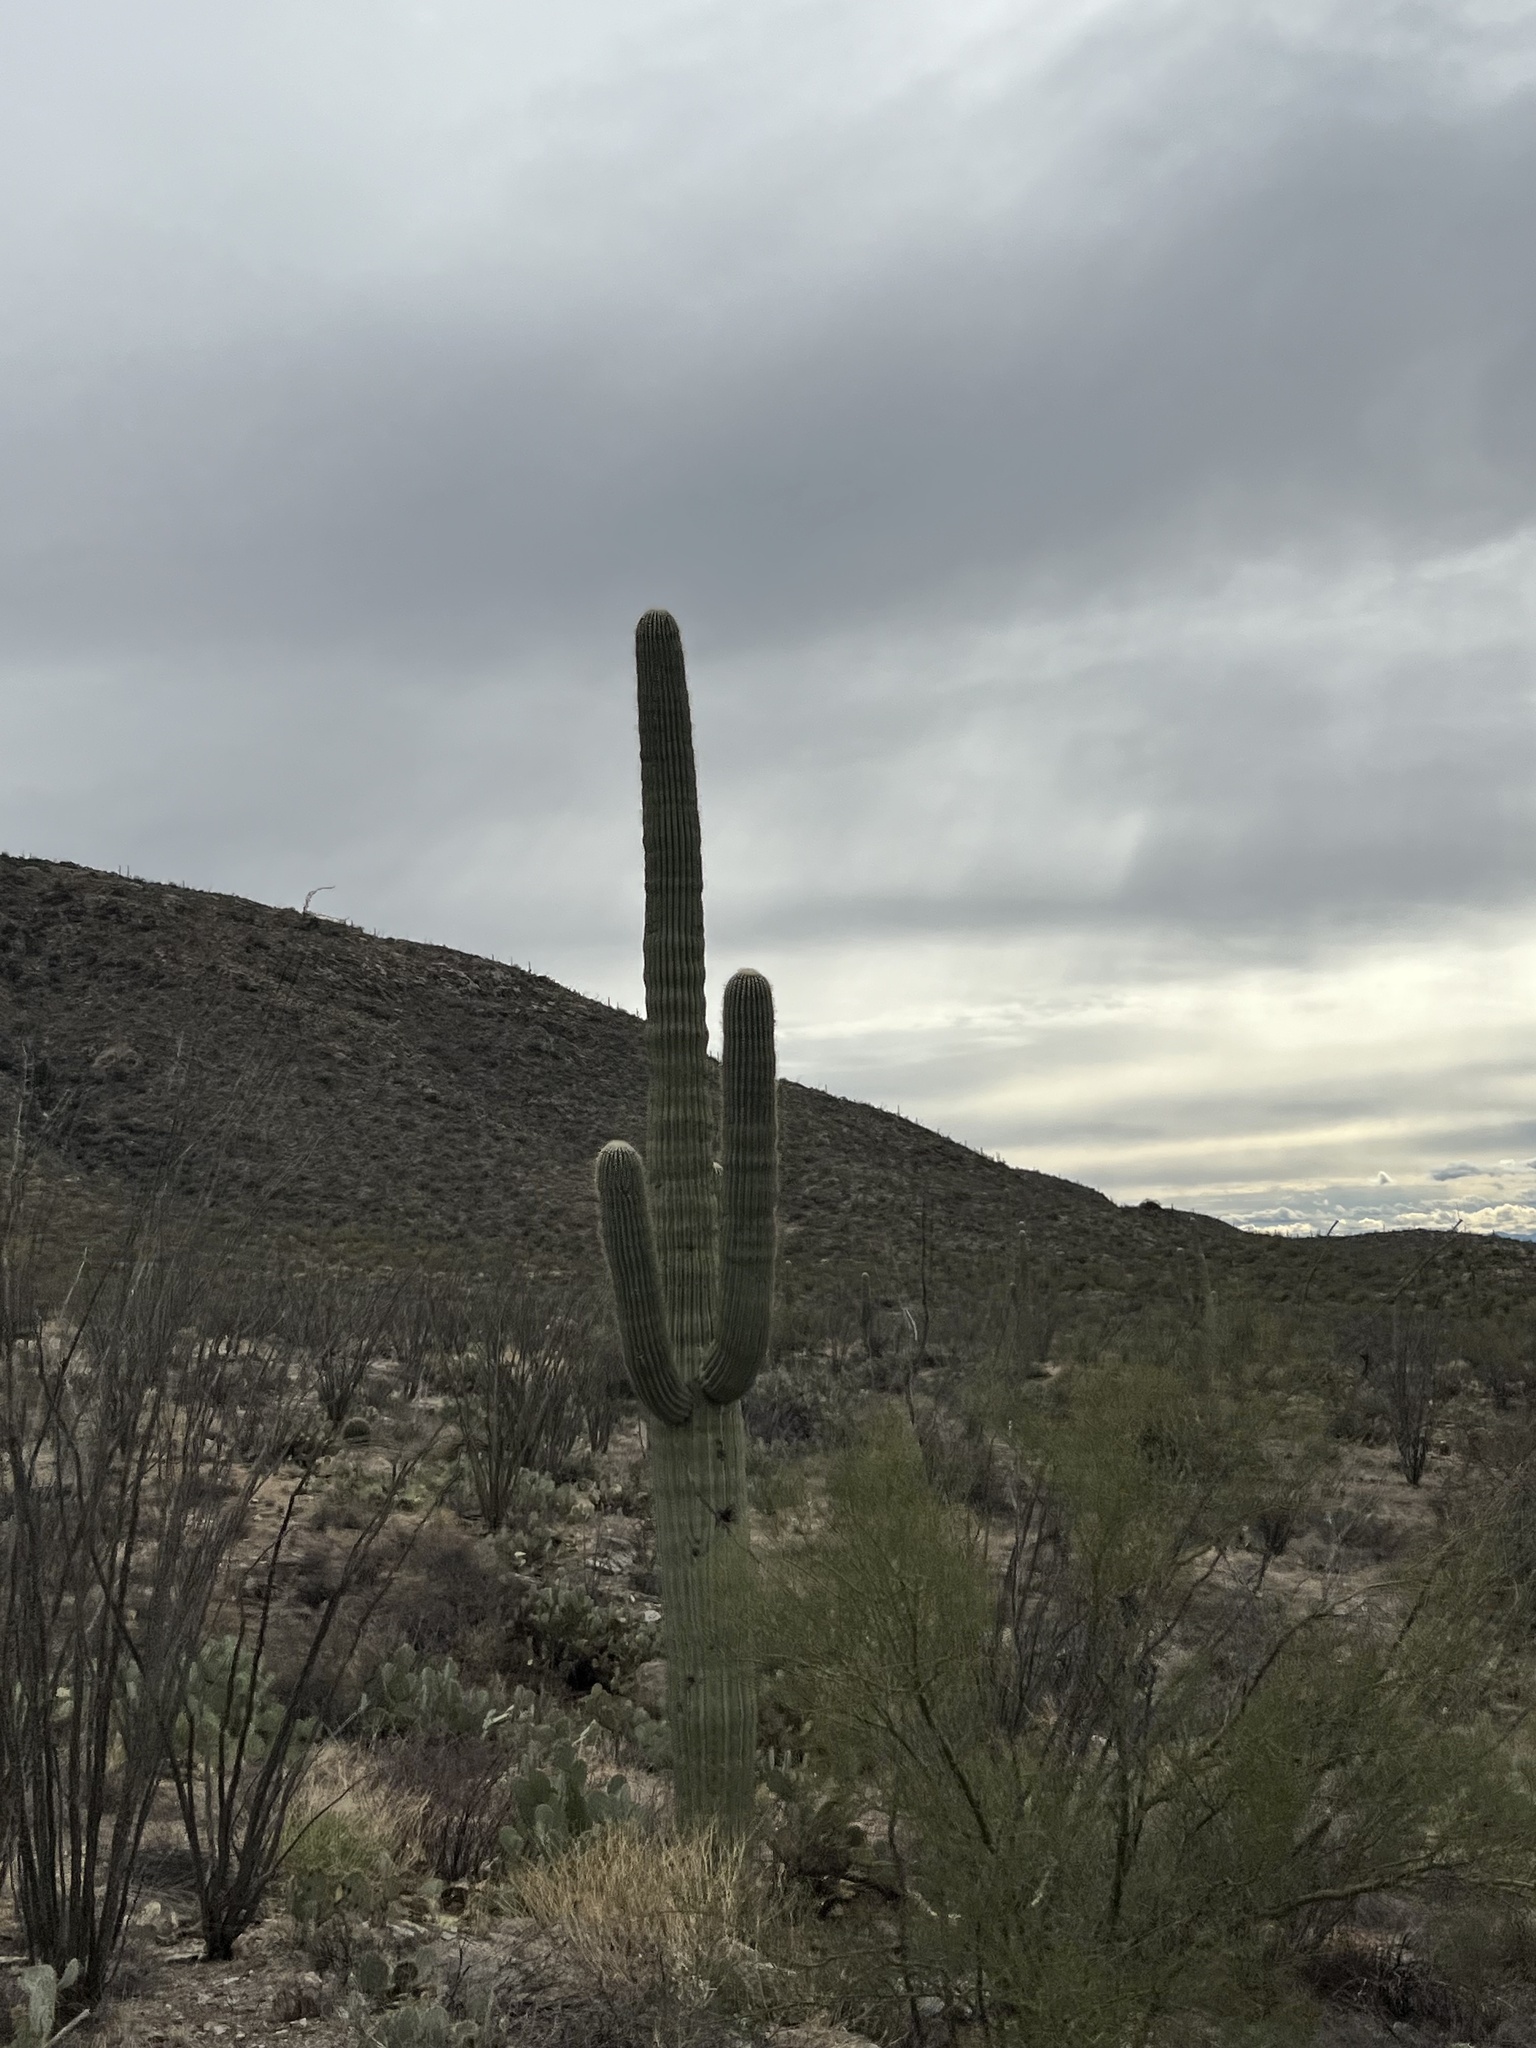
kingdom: Plantae
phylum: Tracheophyta
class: Magnoliopsida
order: Caryophyllales
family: Cactaceae
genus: Carnegiea
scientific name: Carnegiea gigantea
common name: Saguaro
